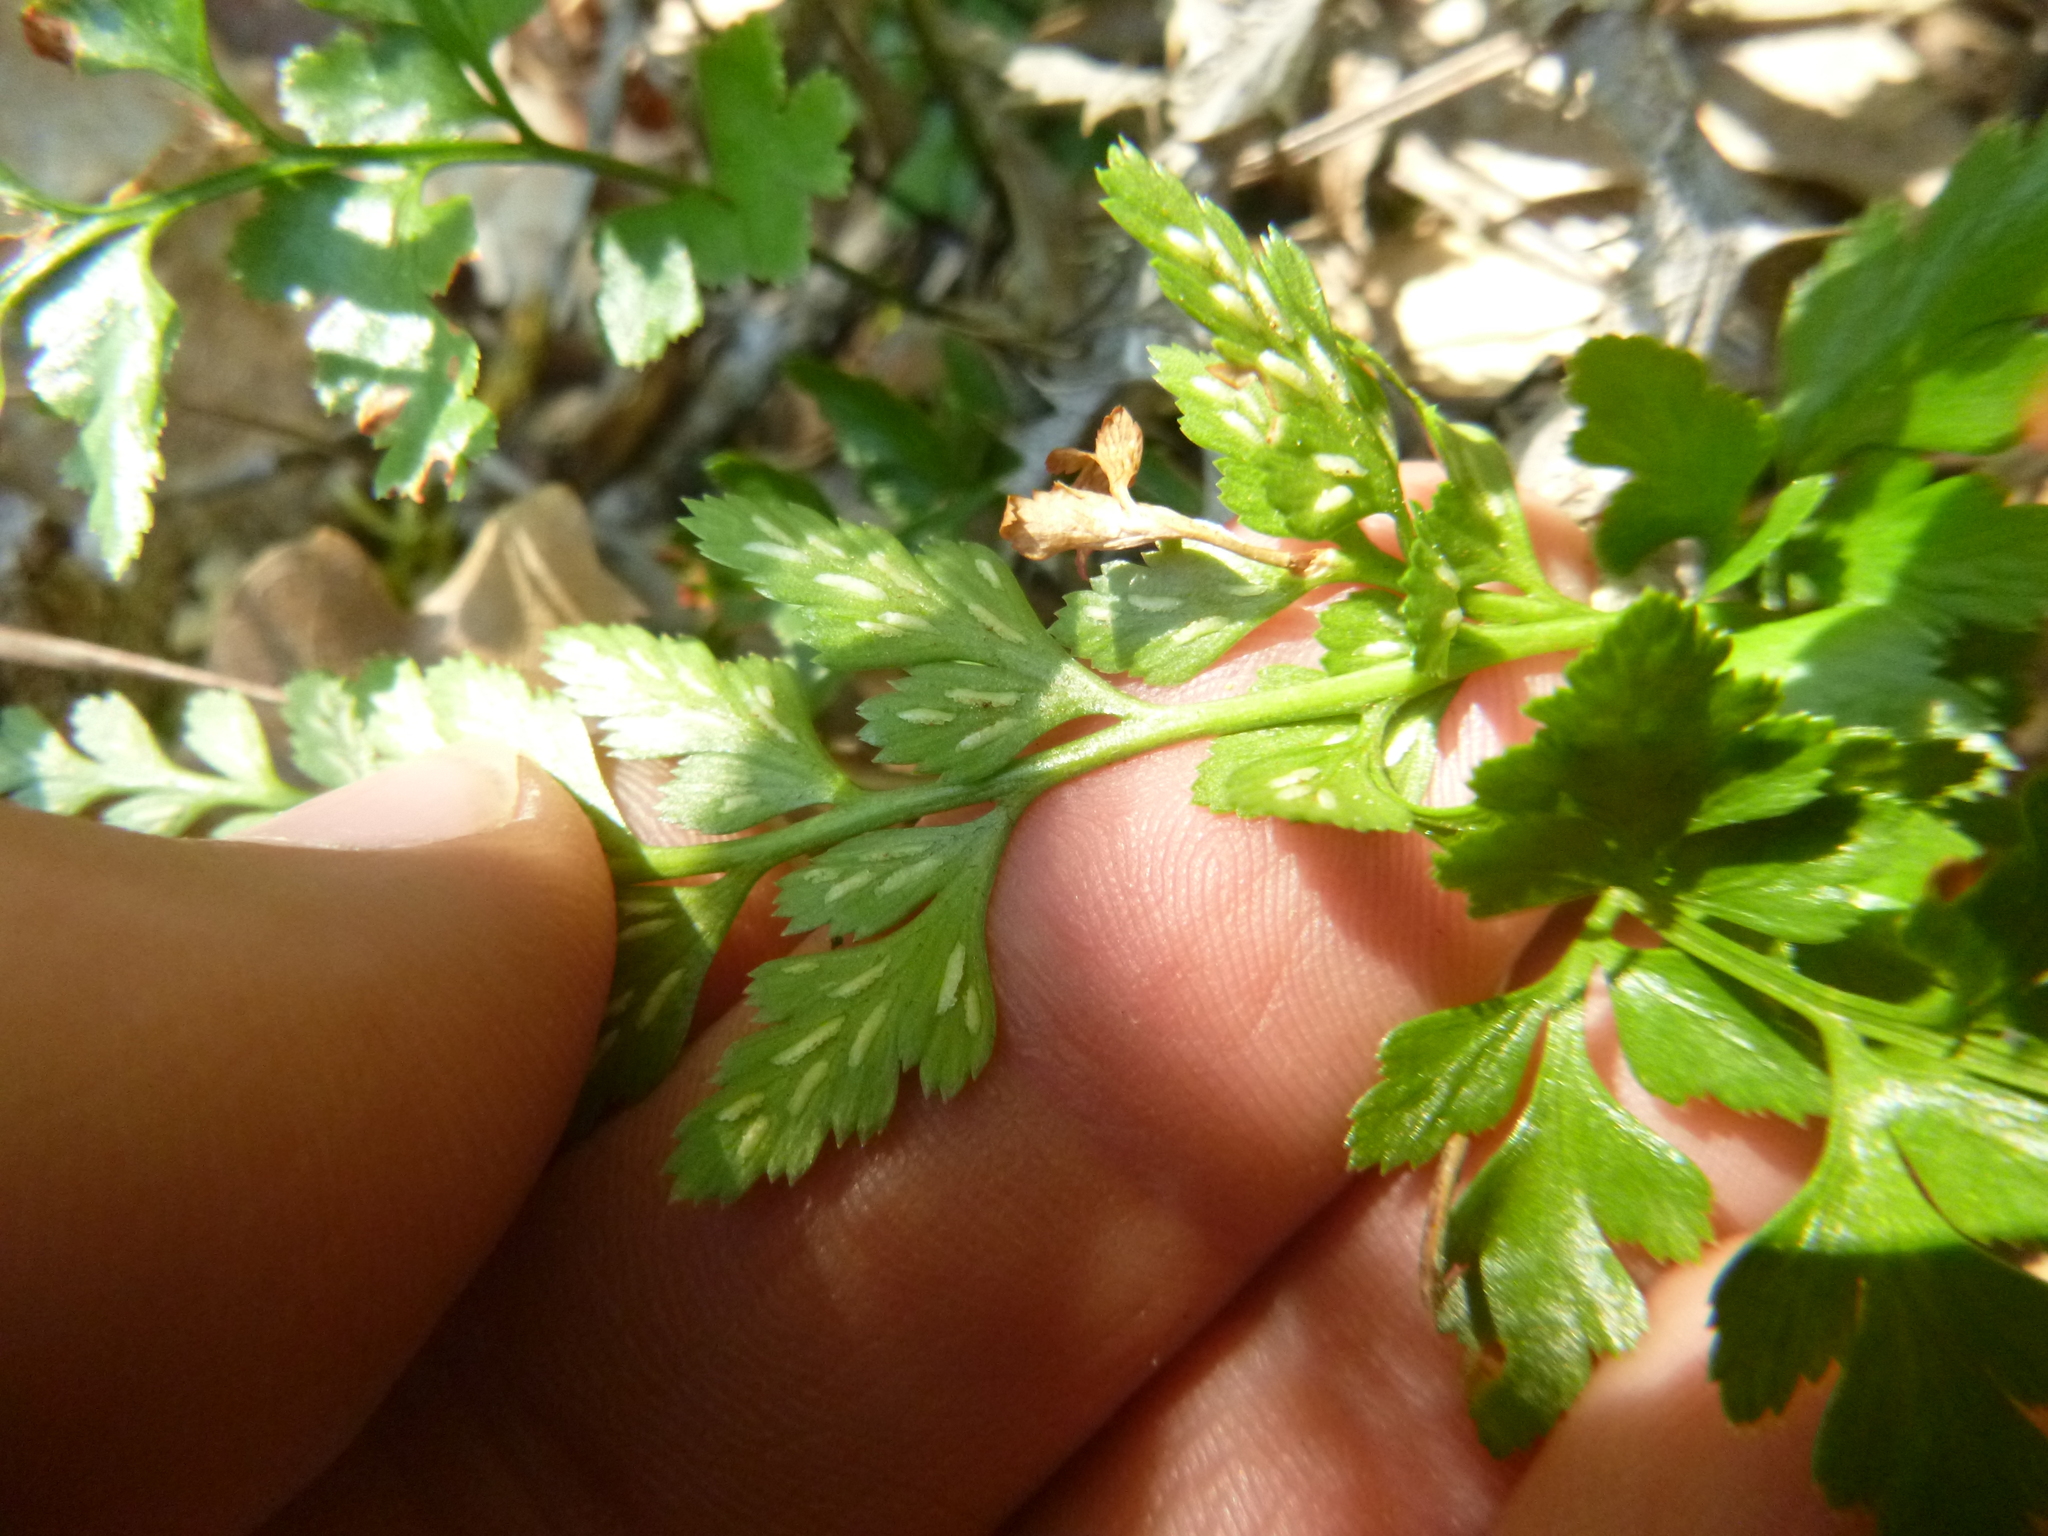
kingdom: Plantae
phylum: Tracheophyta
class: Polypodiopsida
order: Polypodiales
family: Aspleniaceae
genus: Asplenium
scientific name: Asplenium adiantum-nigrum
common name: Black spleenwort
